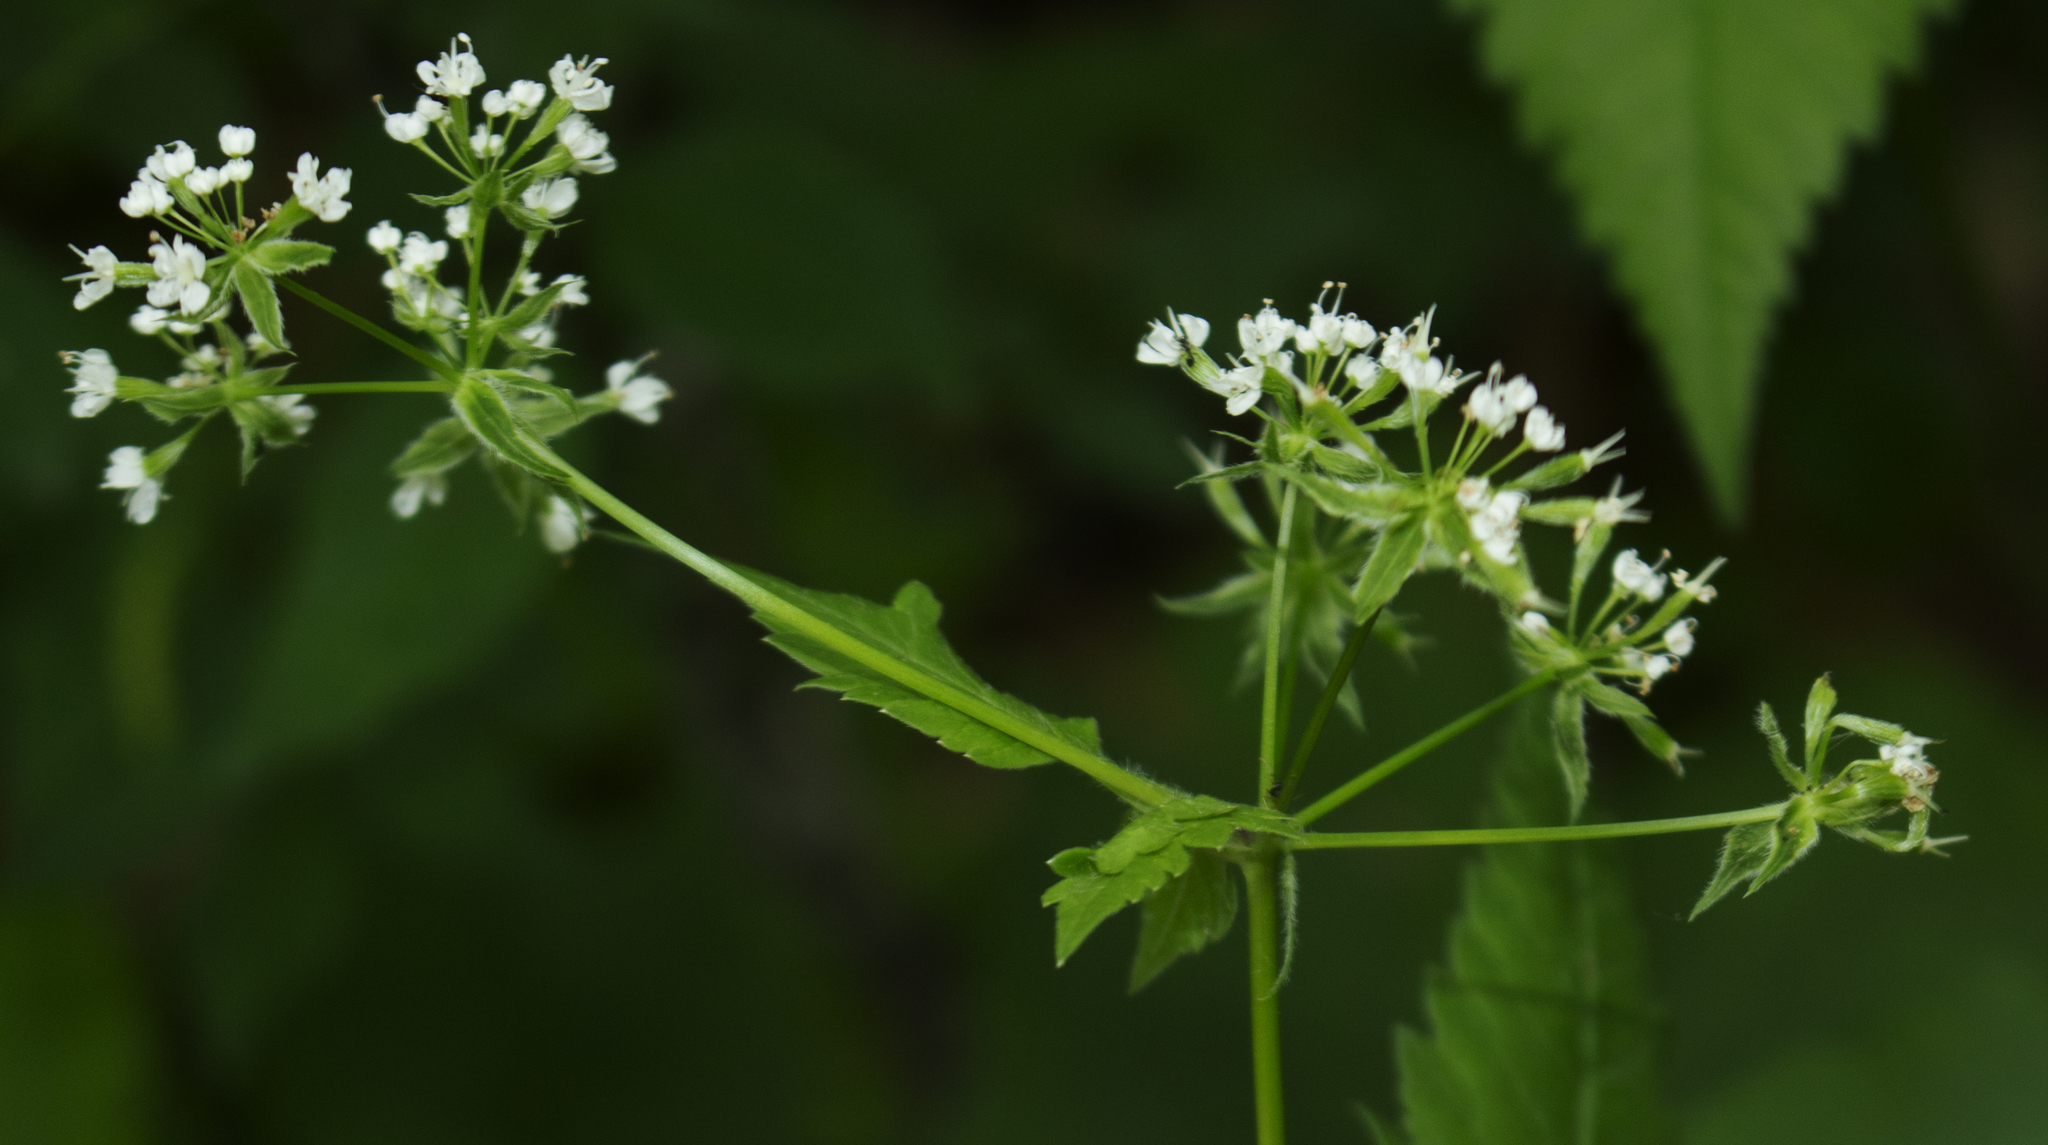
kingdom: Plantae
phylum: Tracheophyta
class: Magnoliopsida
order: Apiales
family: Apiaceae
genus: Osmorhiza
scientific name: Osmorhiza longistylis
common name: Smooth sweet cicely
